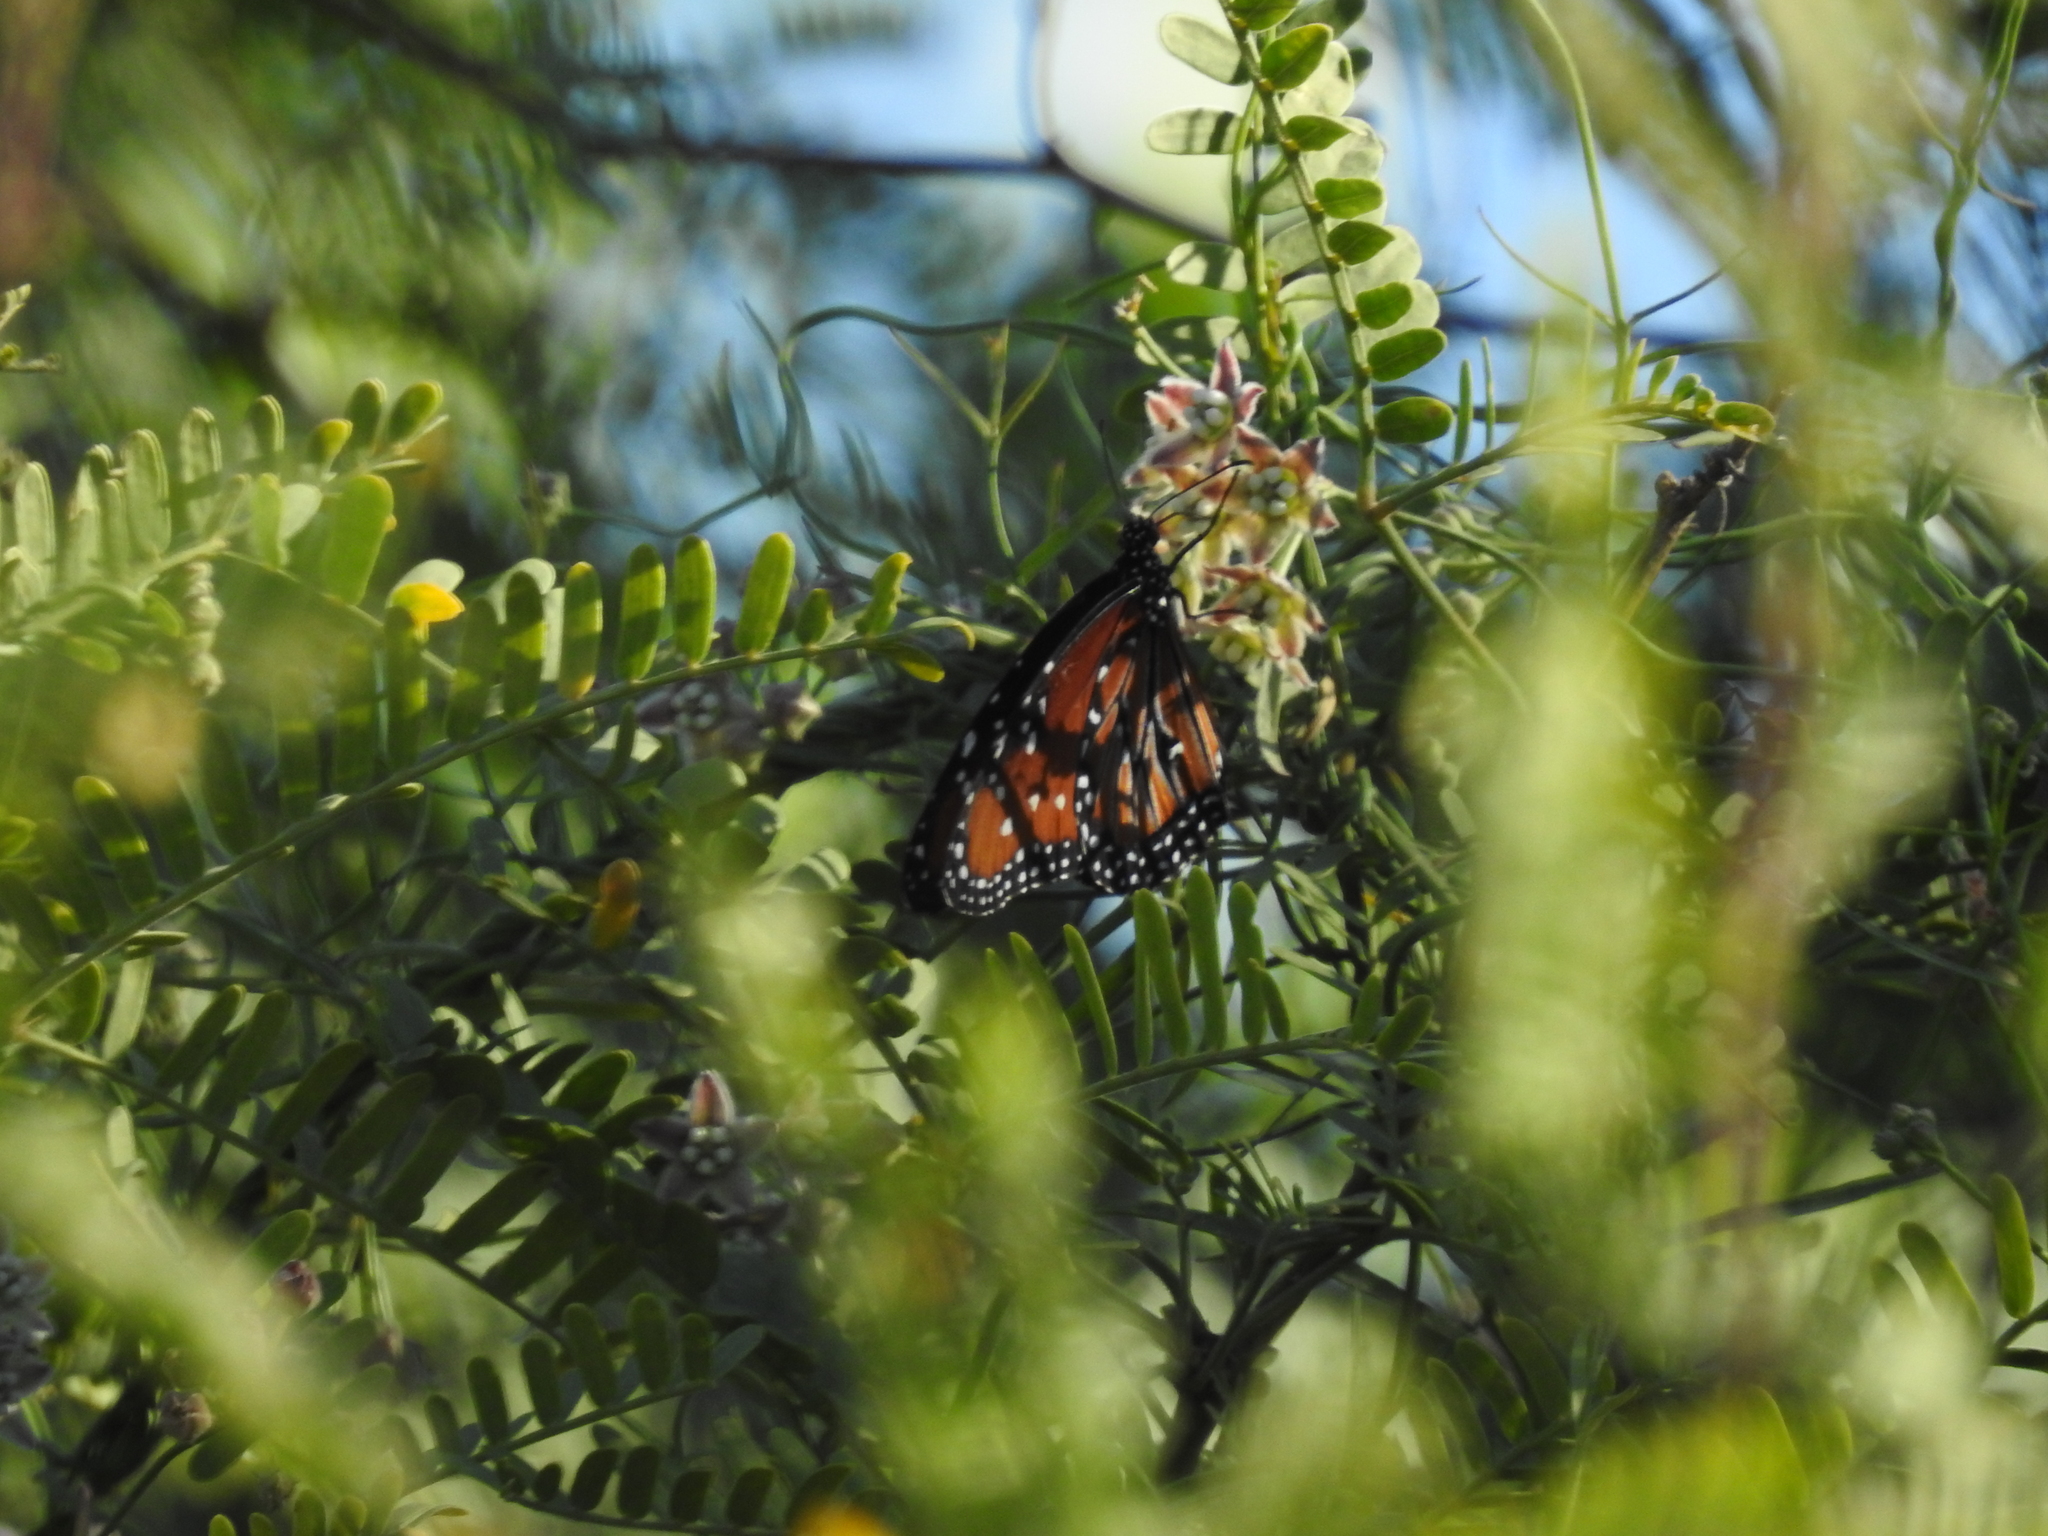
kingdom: Animalia
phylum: Arthropoda
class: Insecta
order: Lepidoptera
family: Nymphalidae
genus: Danaus
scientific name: Danaus gilippus
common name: Queen
